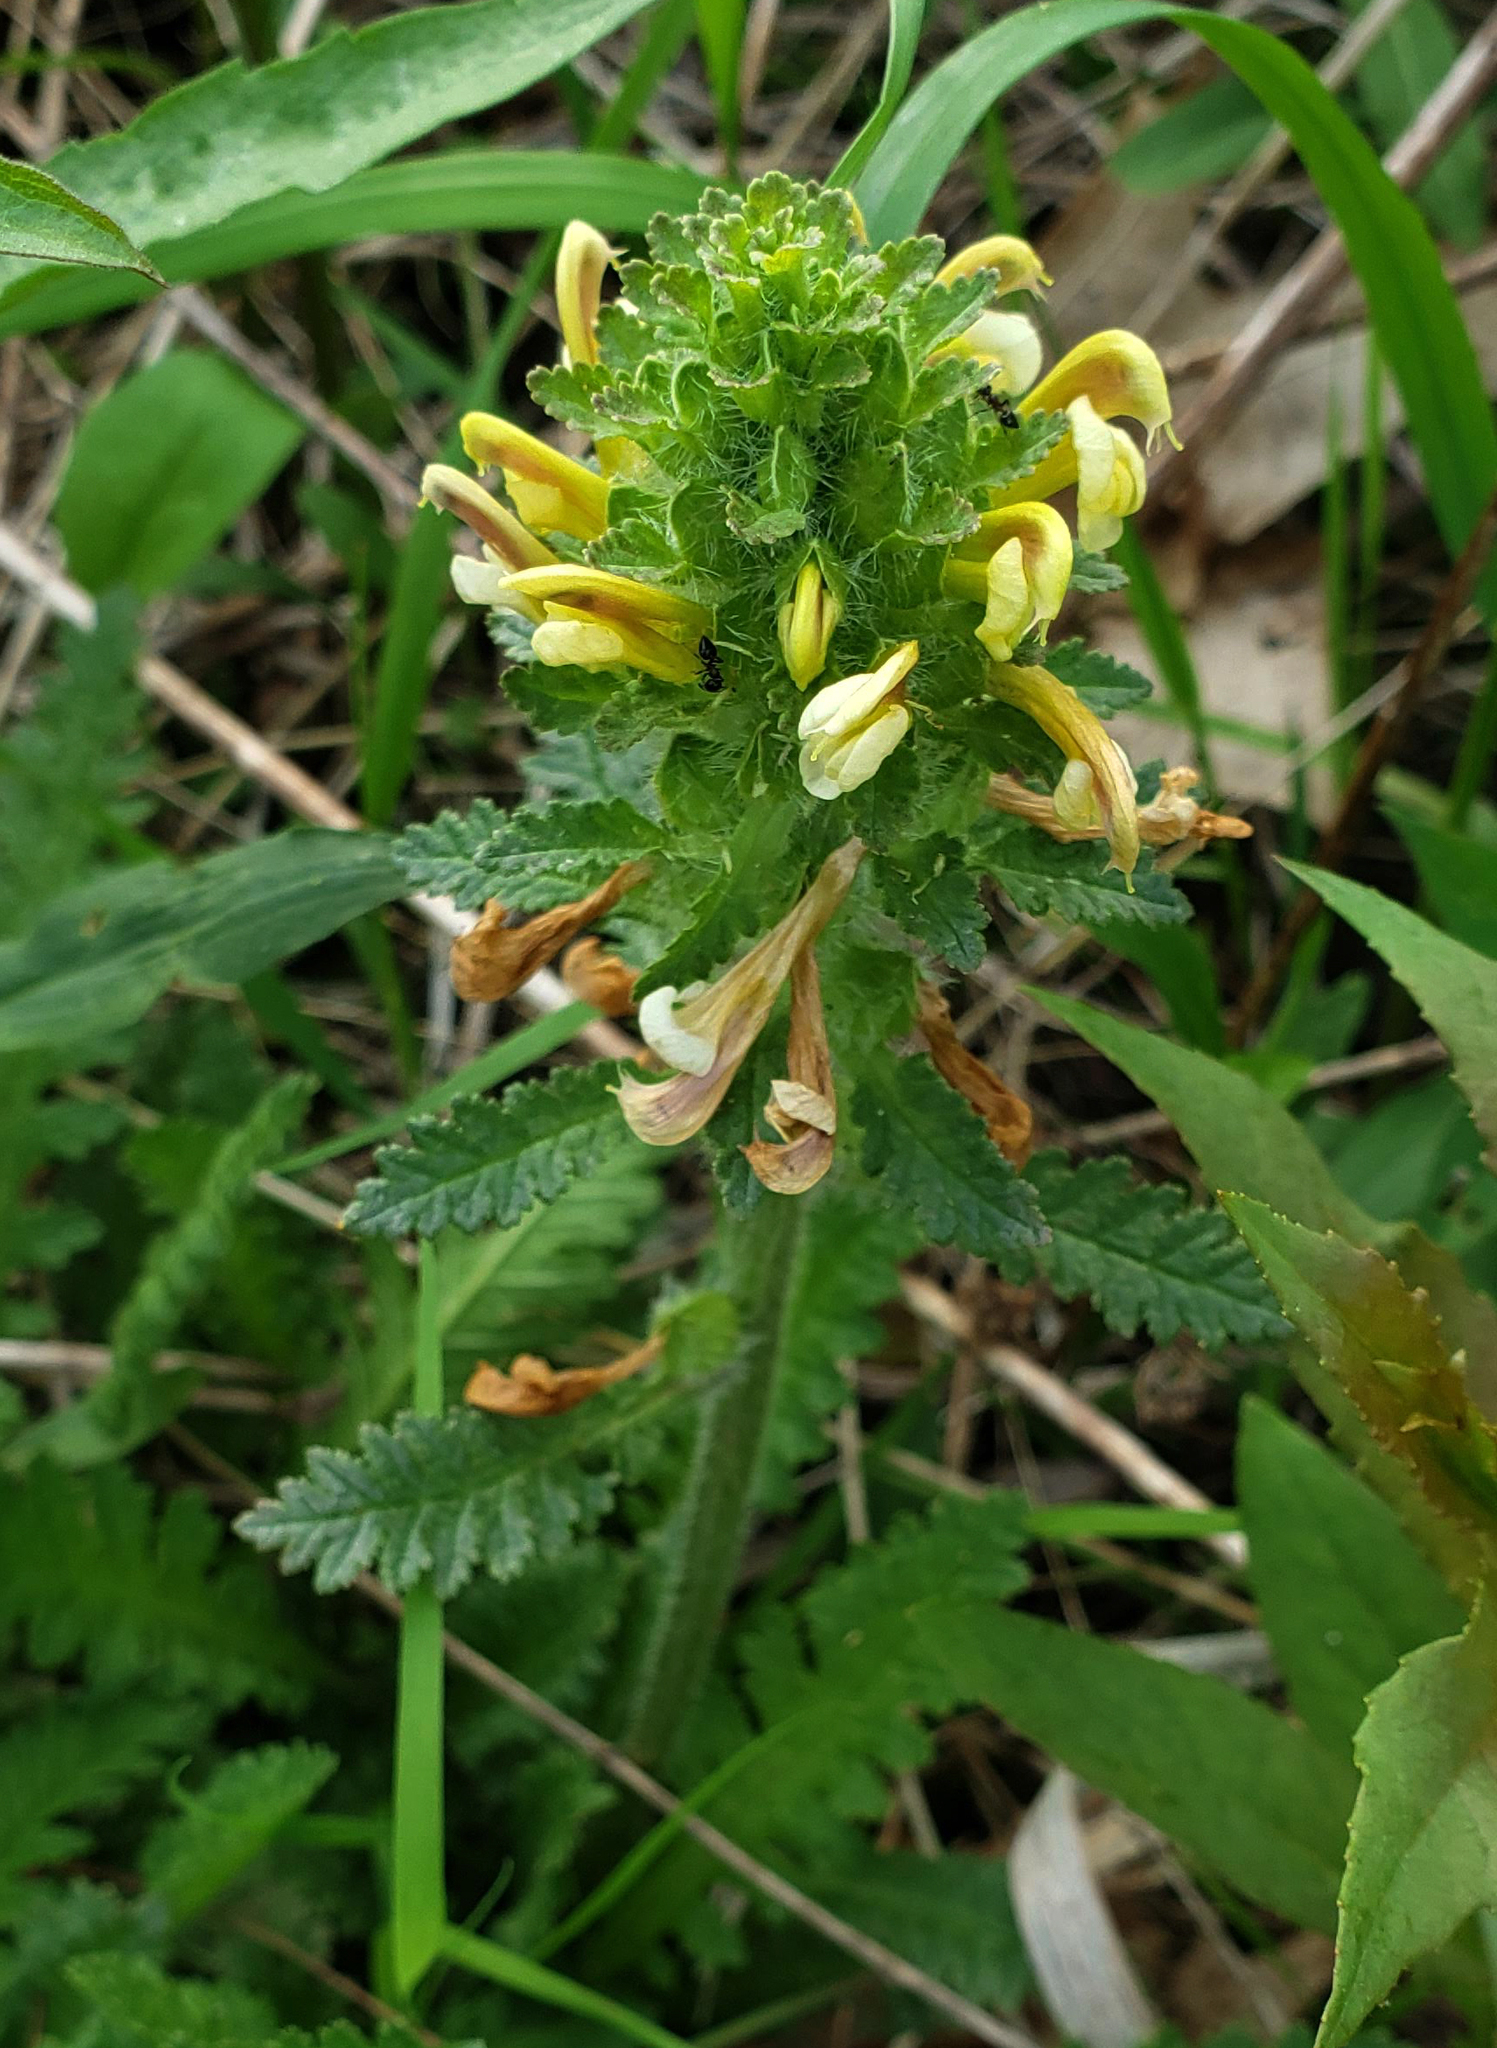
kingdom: Plantae
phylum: Tracheophyta
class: Magnoliopsida
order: Lamiales
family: Orobanchaceae
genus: Pedicularis
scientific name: Pedicularis canadensis
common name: Early lousewort
